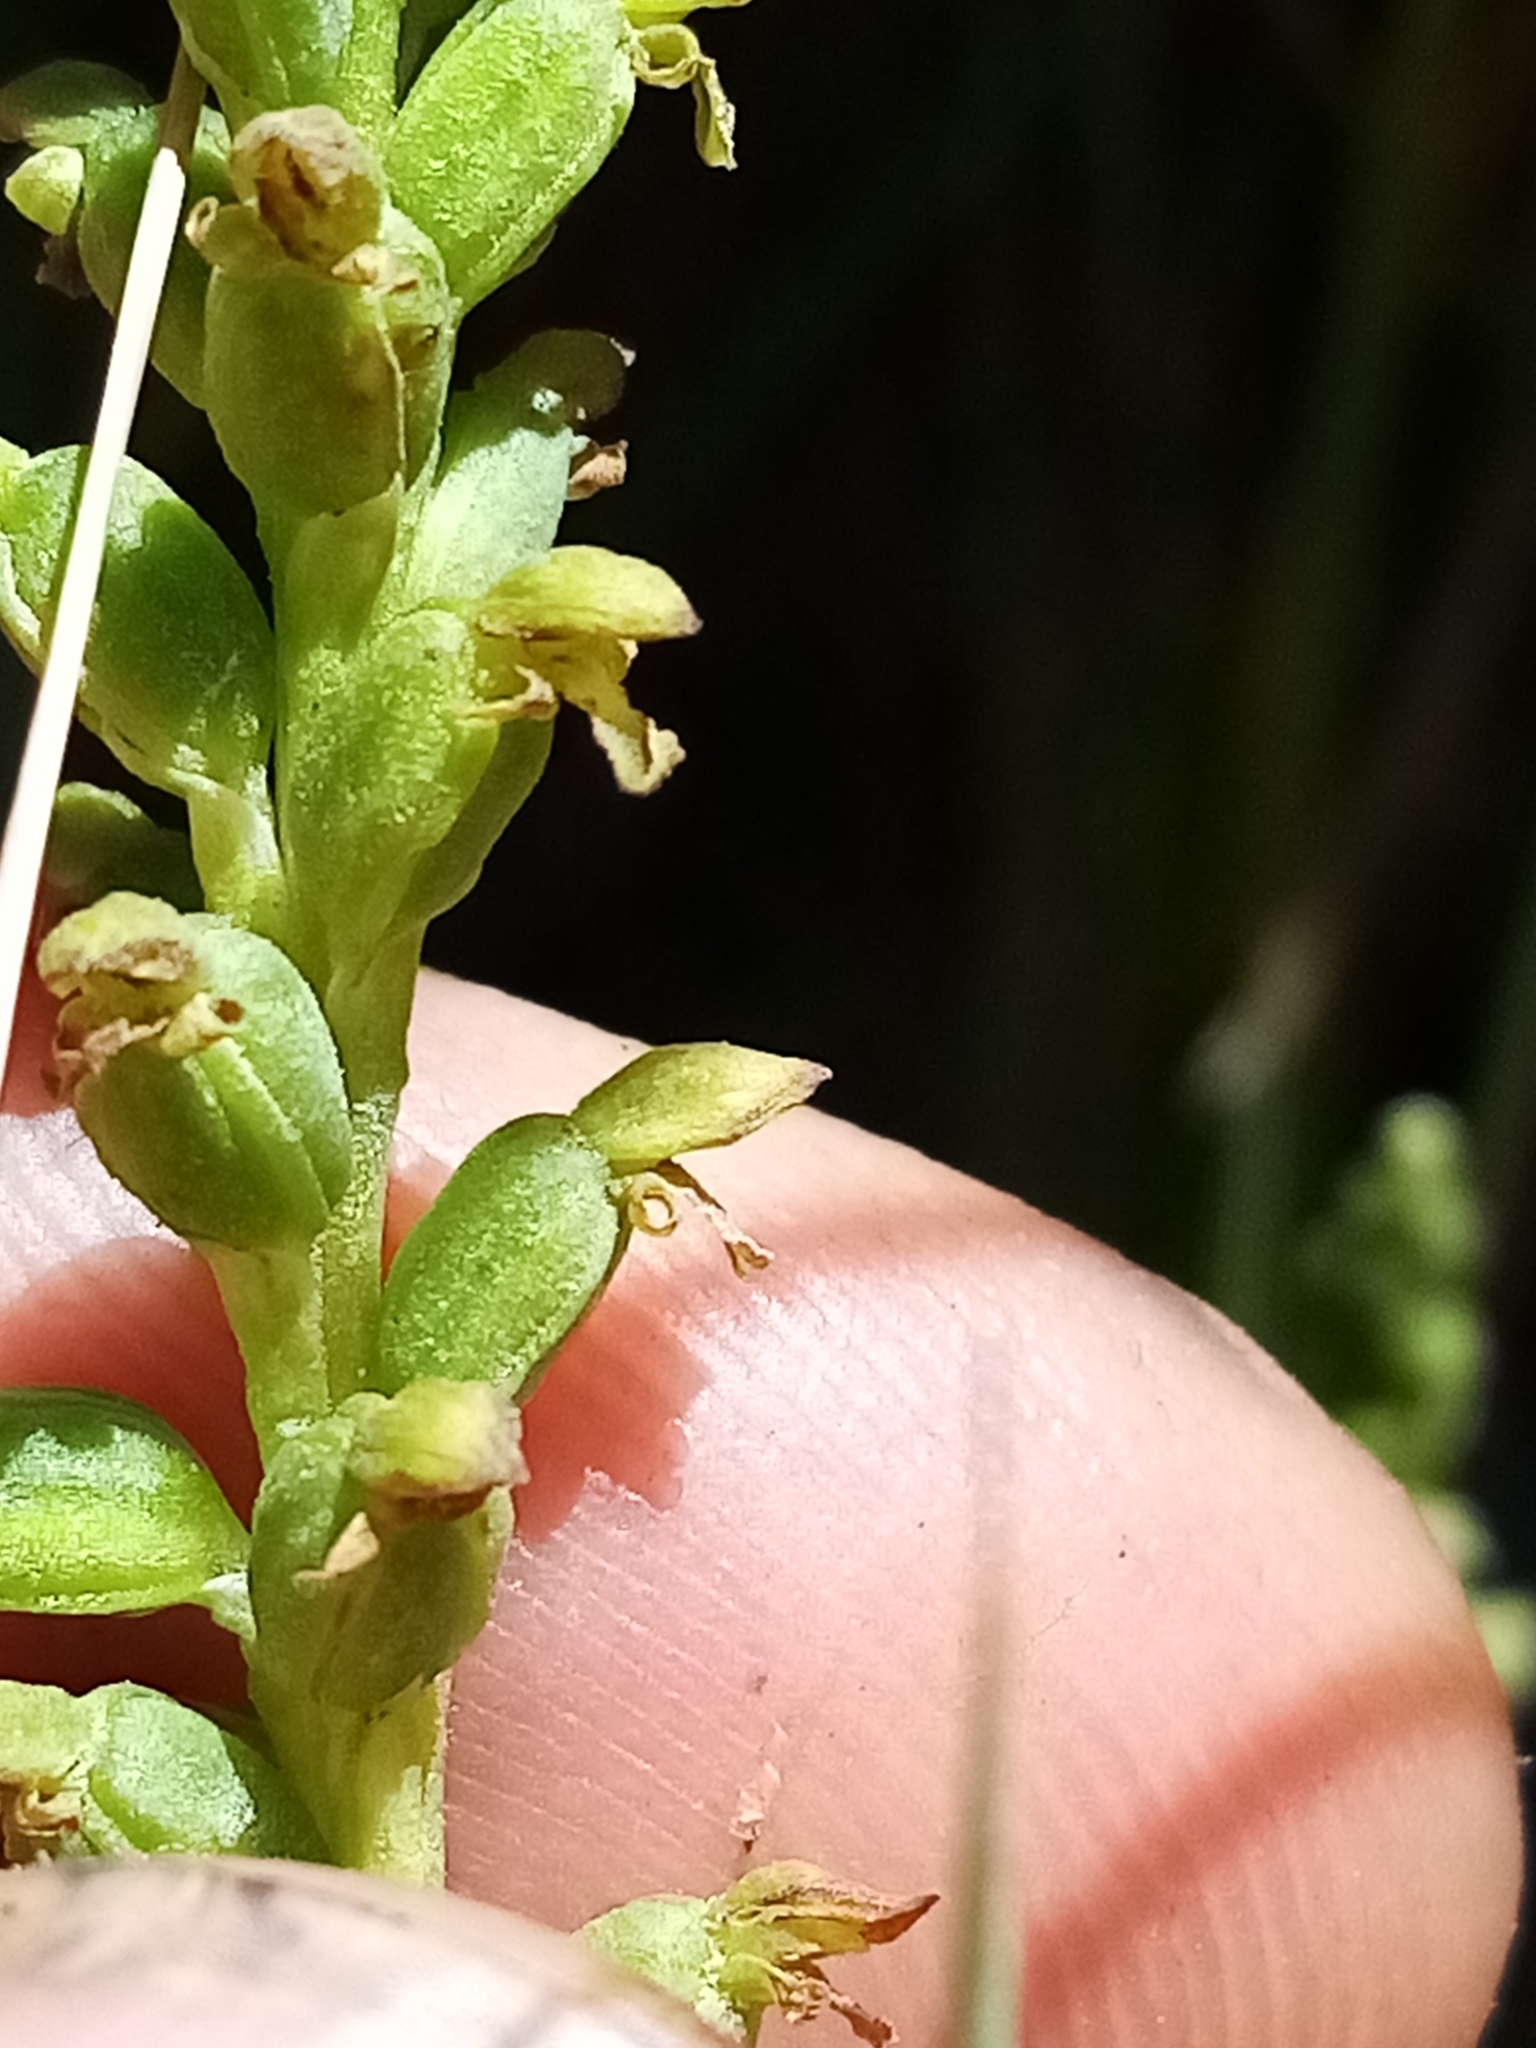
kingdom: Plantae
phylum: Tracheophyta
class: Liliopsida
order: Asparagales
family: Orchidaceae
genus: Microtis
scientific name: Microtis unifolia
